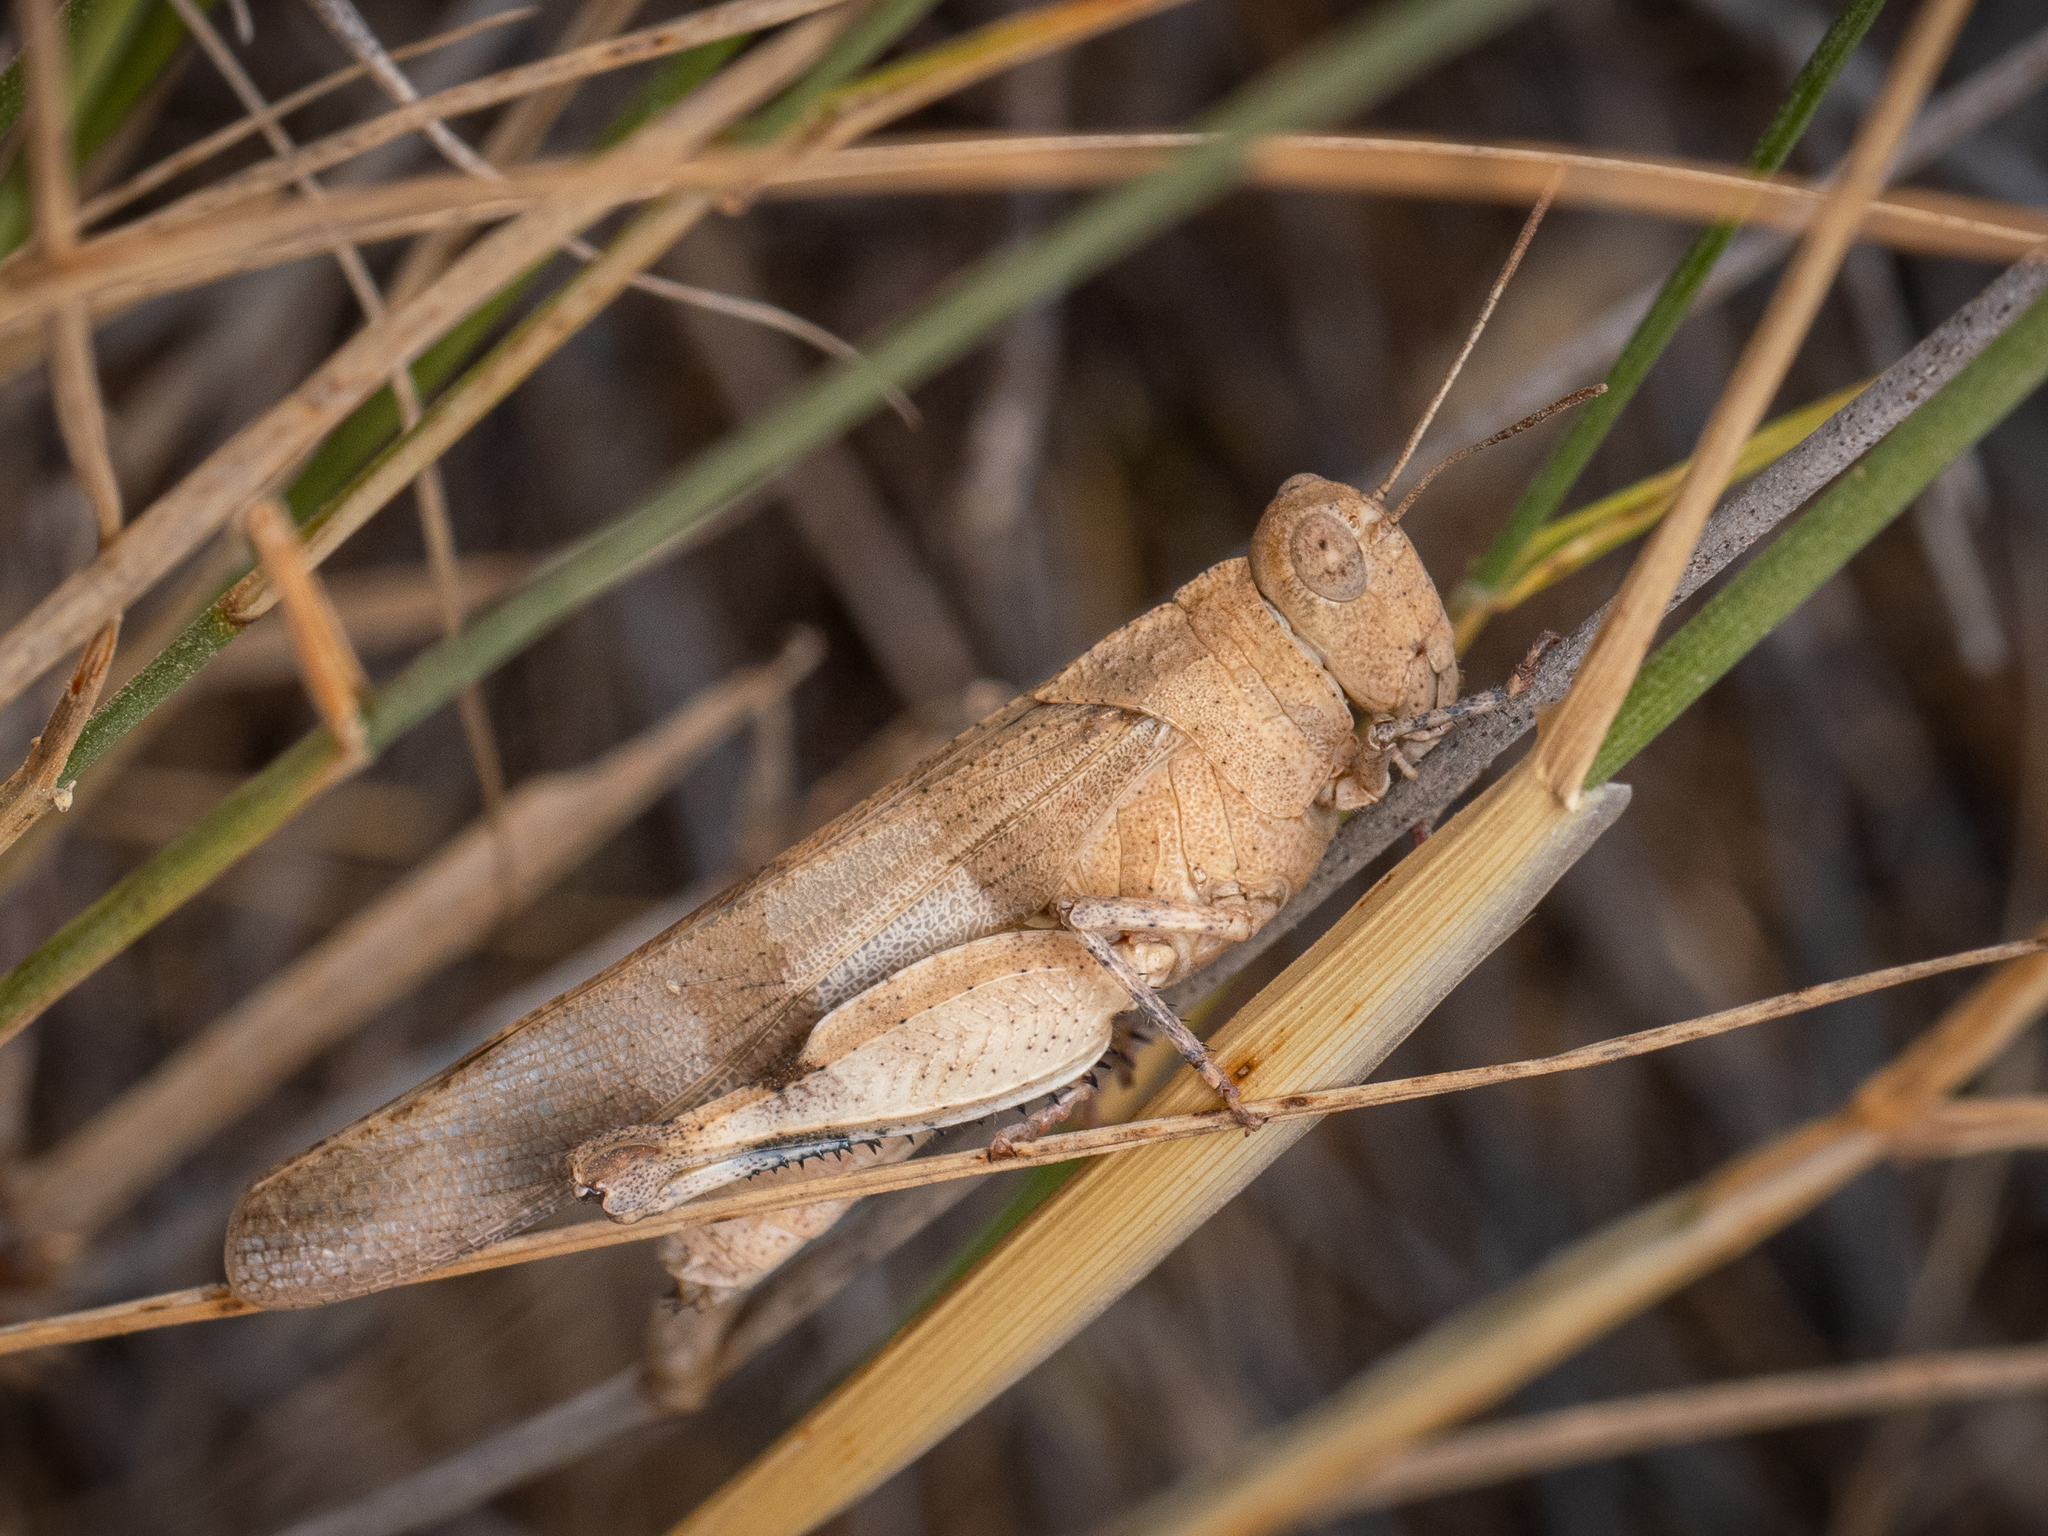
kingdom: Animalia
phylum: Arthropoda
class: Insecta
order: Orthoptera
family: Acrididae
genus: Oedipoda
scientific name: Oedipoda caerulescens
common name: Blue-winged grasshopper
